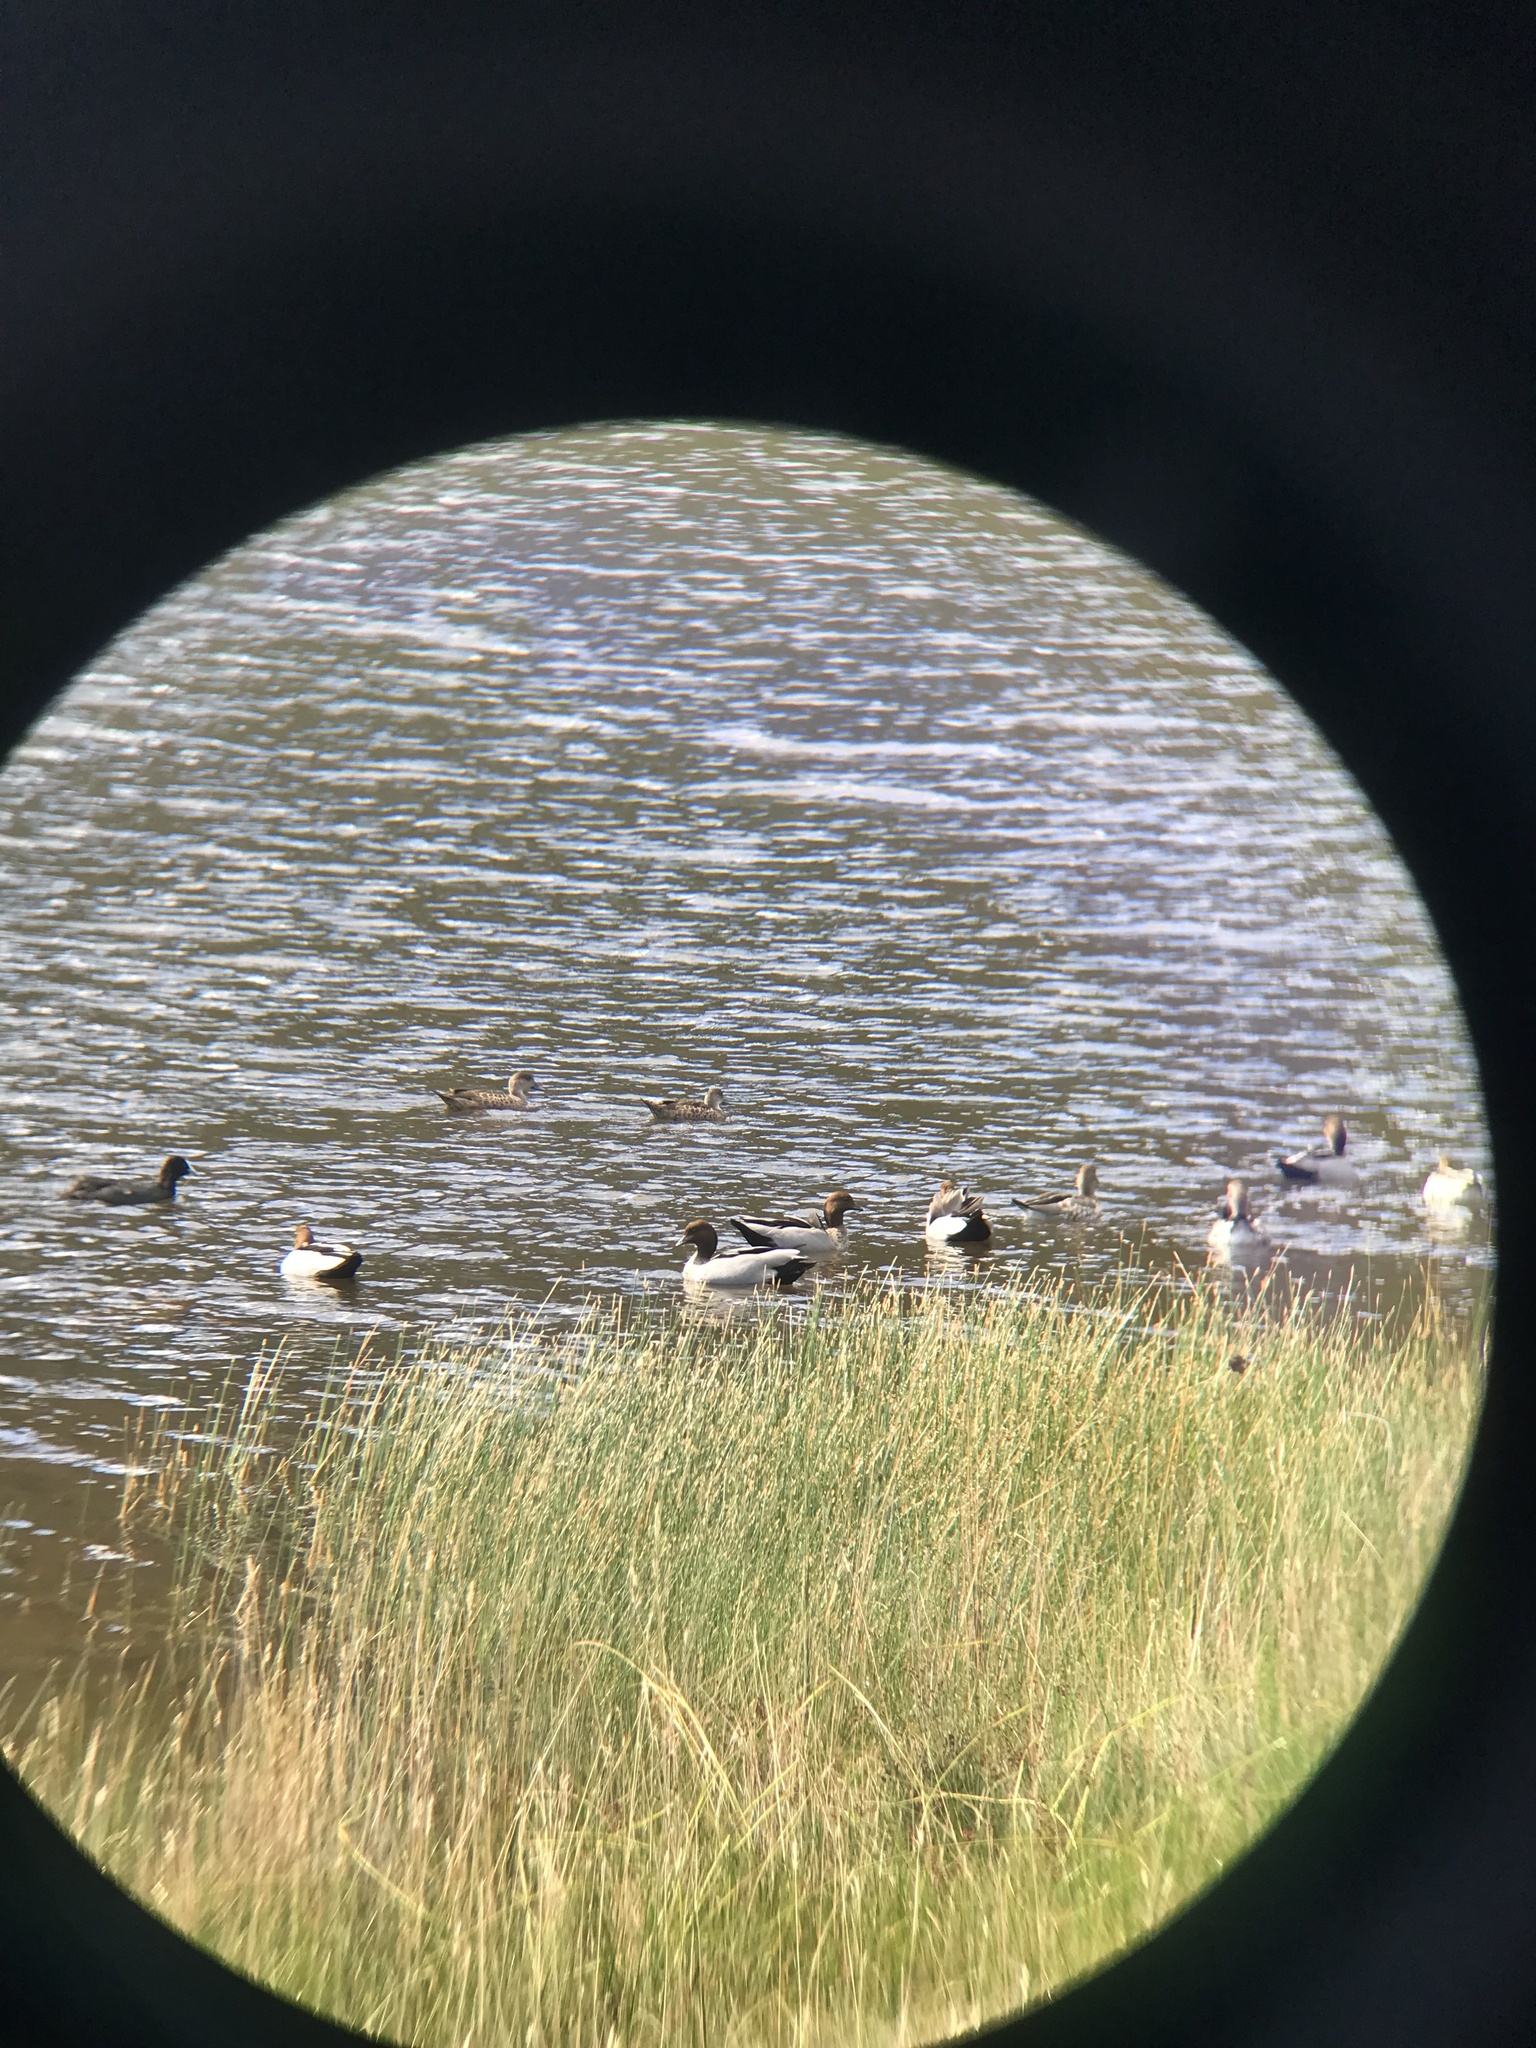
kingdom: Animalia
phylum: Chordata
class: Aves
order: Anseriformes
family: Anatidae
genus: Anas
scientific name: Anas gracilis
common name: Grey teal
